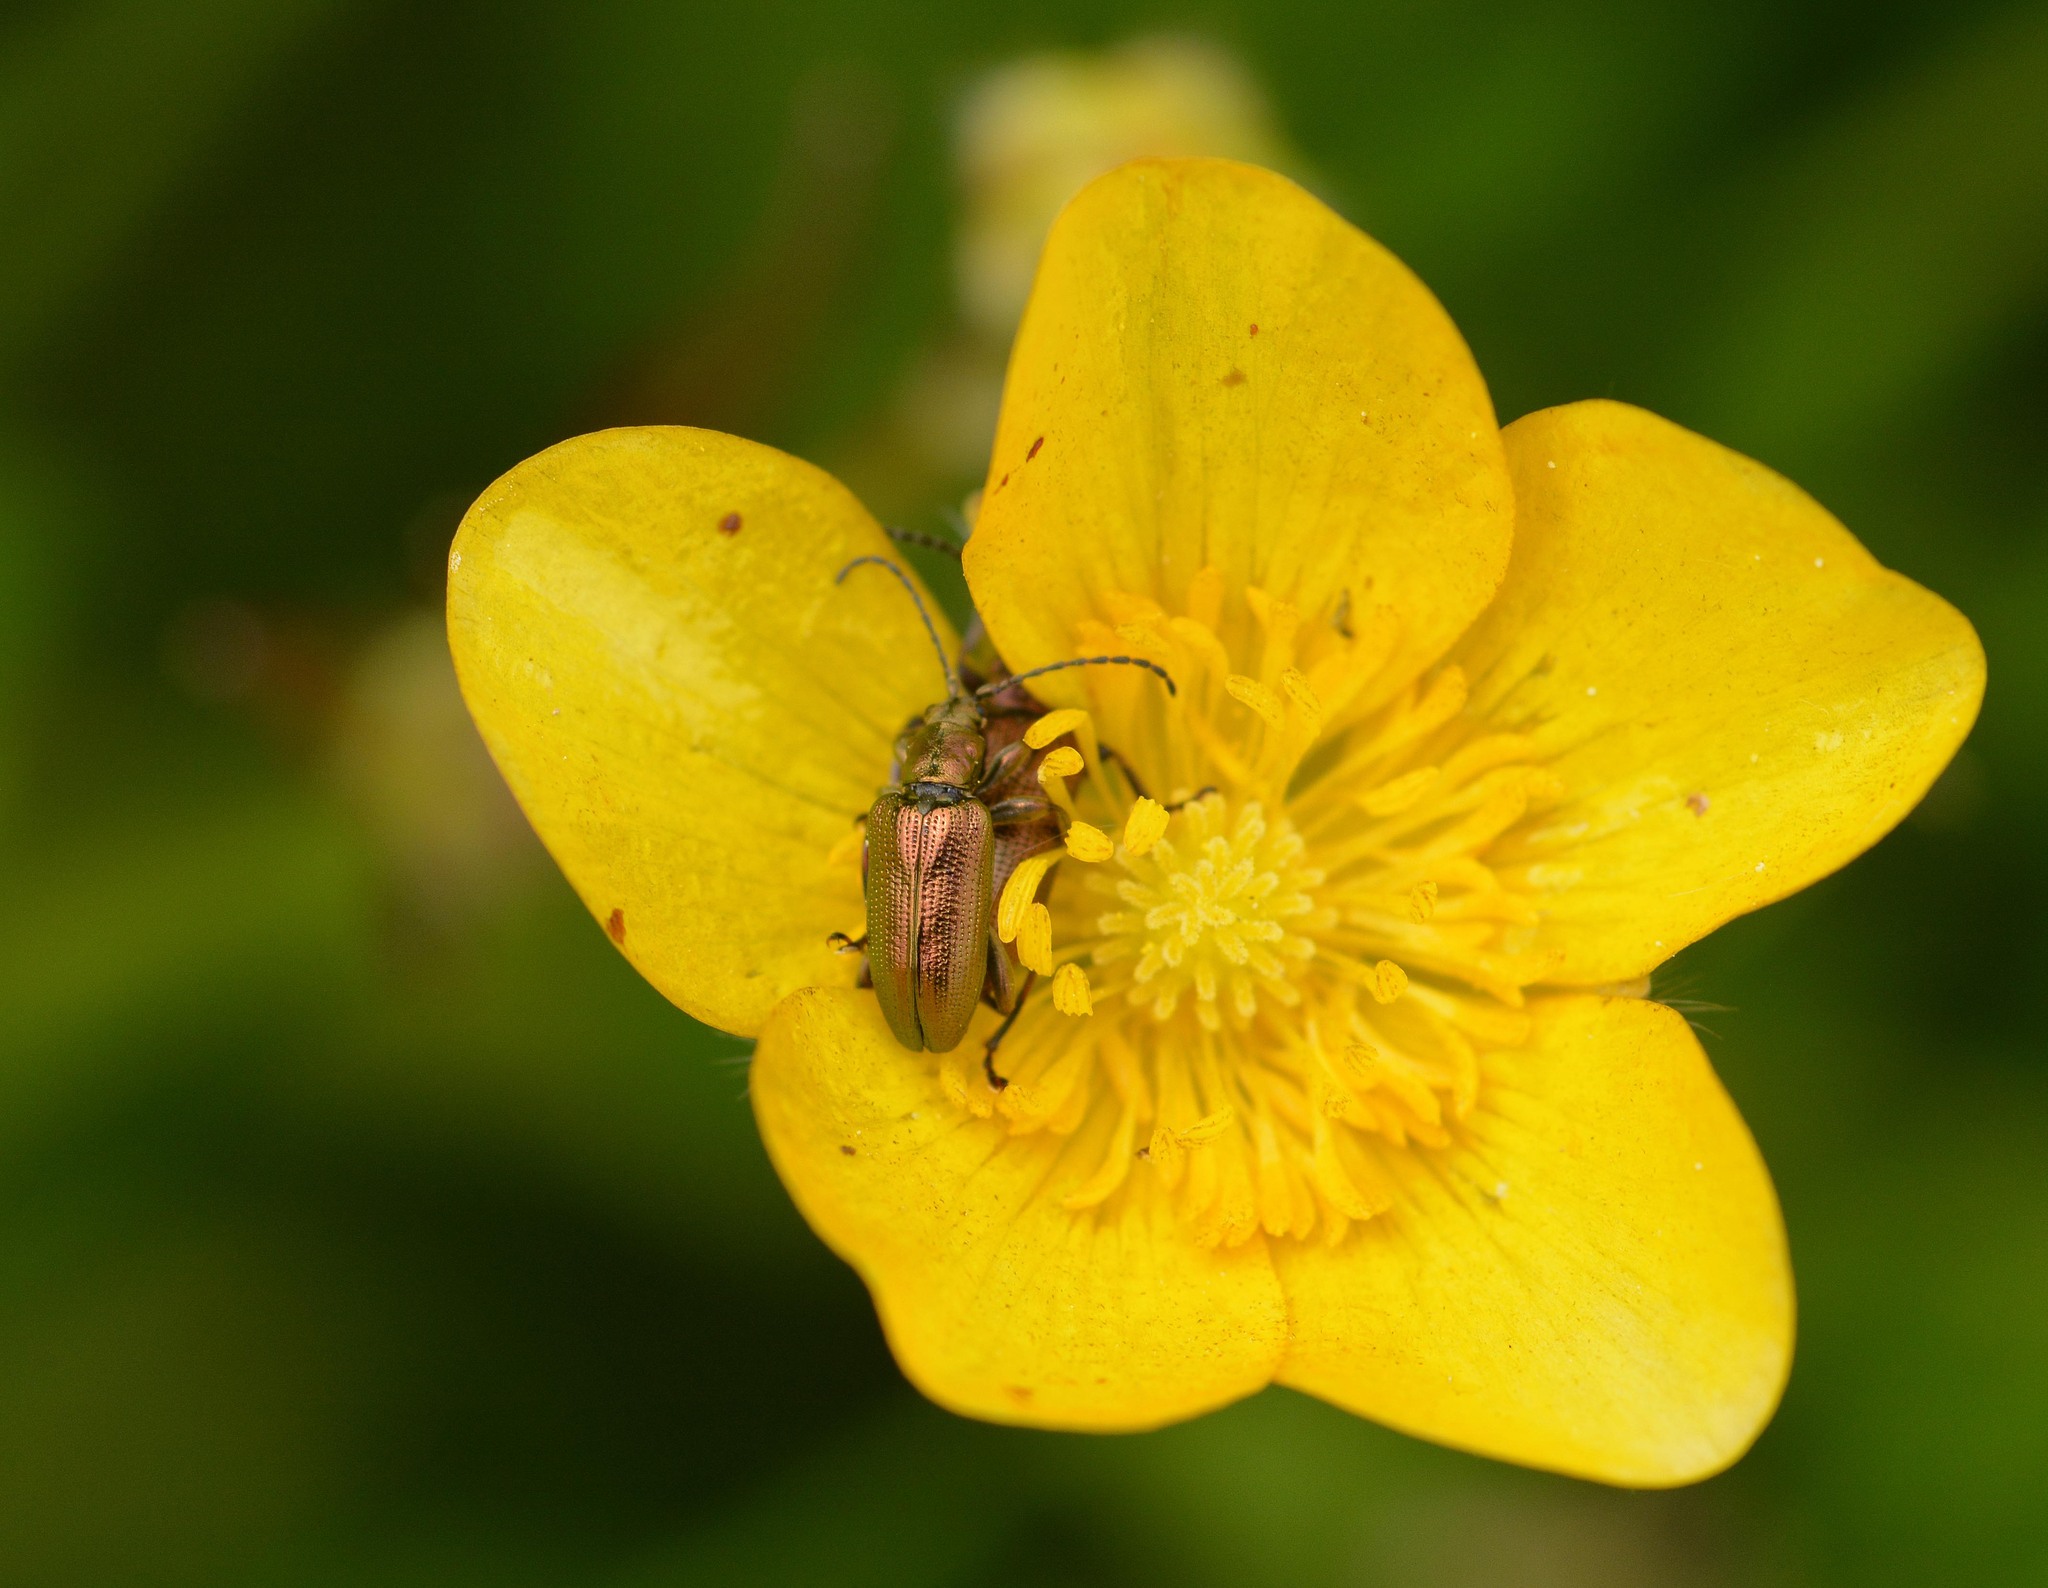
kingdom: Animalia
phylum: Arthropoda
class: Insecta
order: Coleoptera
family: Chrysomelidae
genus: Plateumaris
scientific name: Plateumaris sericea
